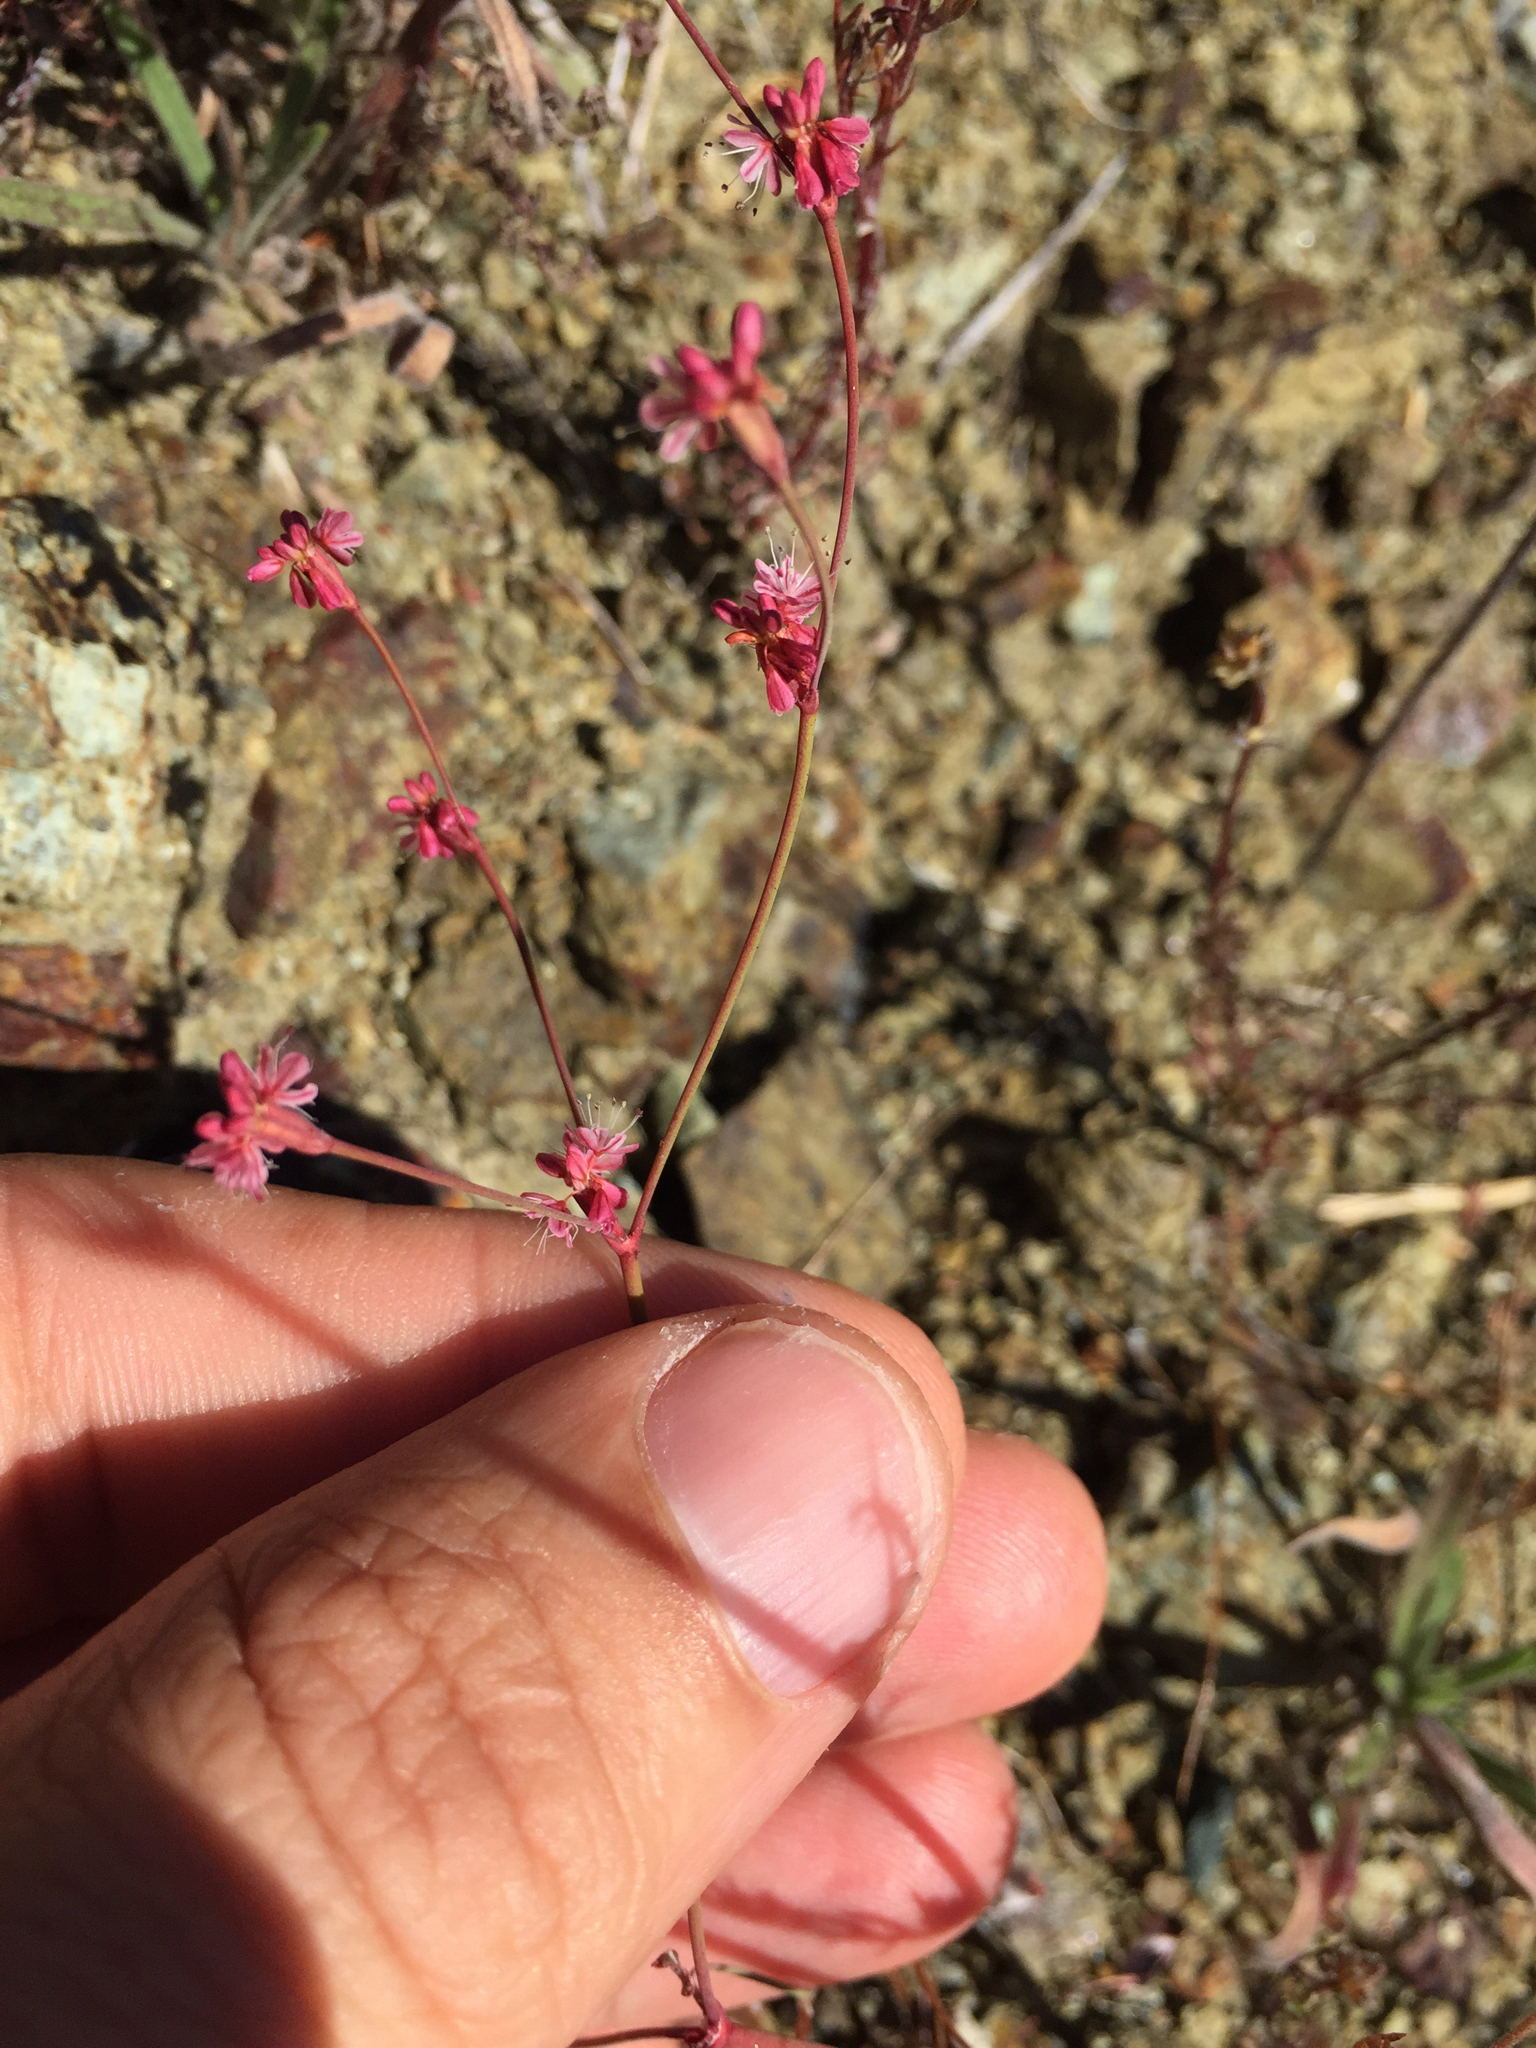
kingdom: Plantae
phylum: Tracheophyta
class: Magnoliopsida
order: Caryophyllales
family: Polygonaceae
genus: Eriogonum
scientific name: Eriogonum luteolum
